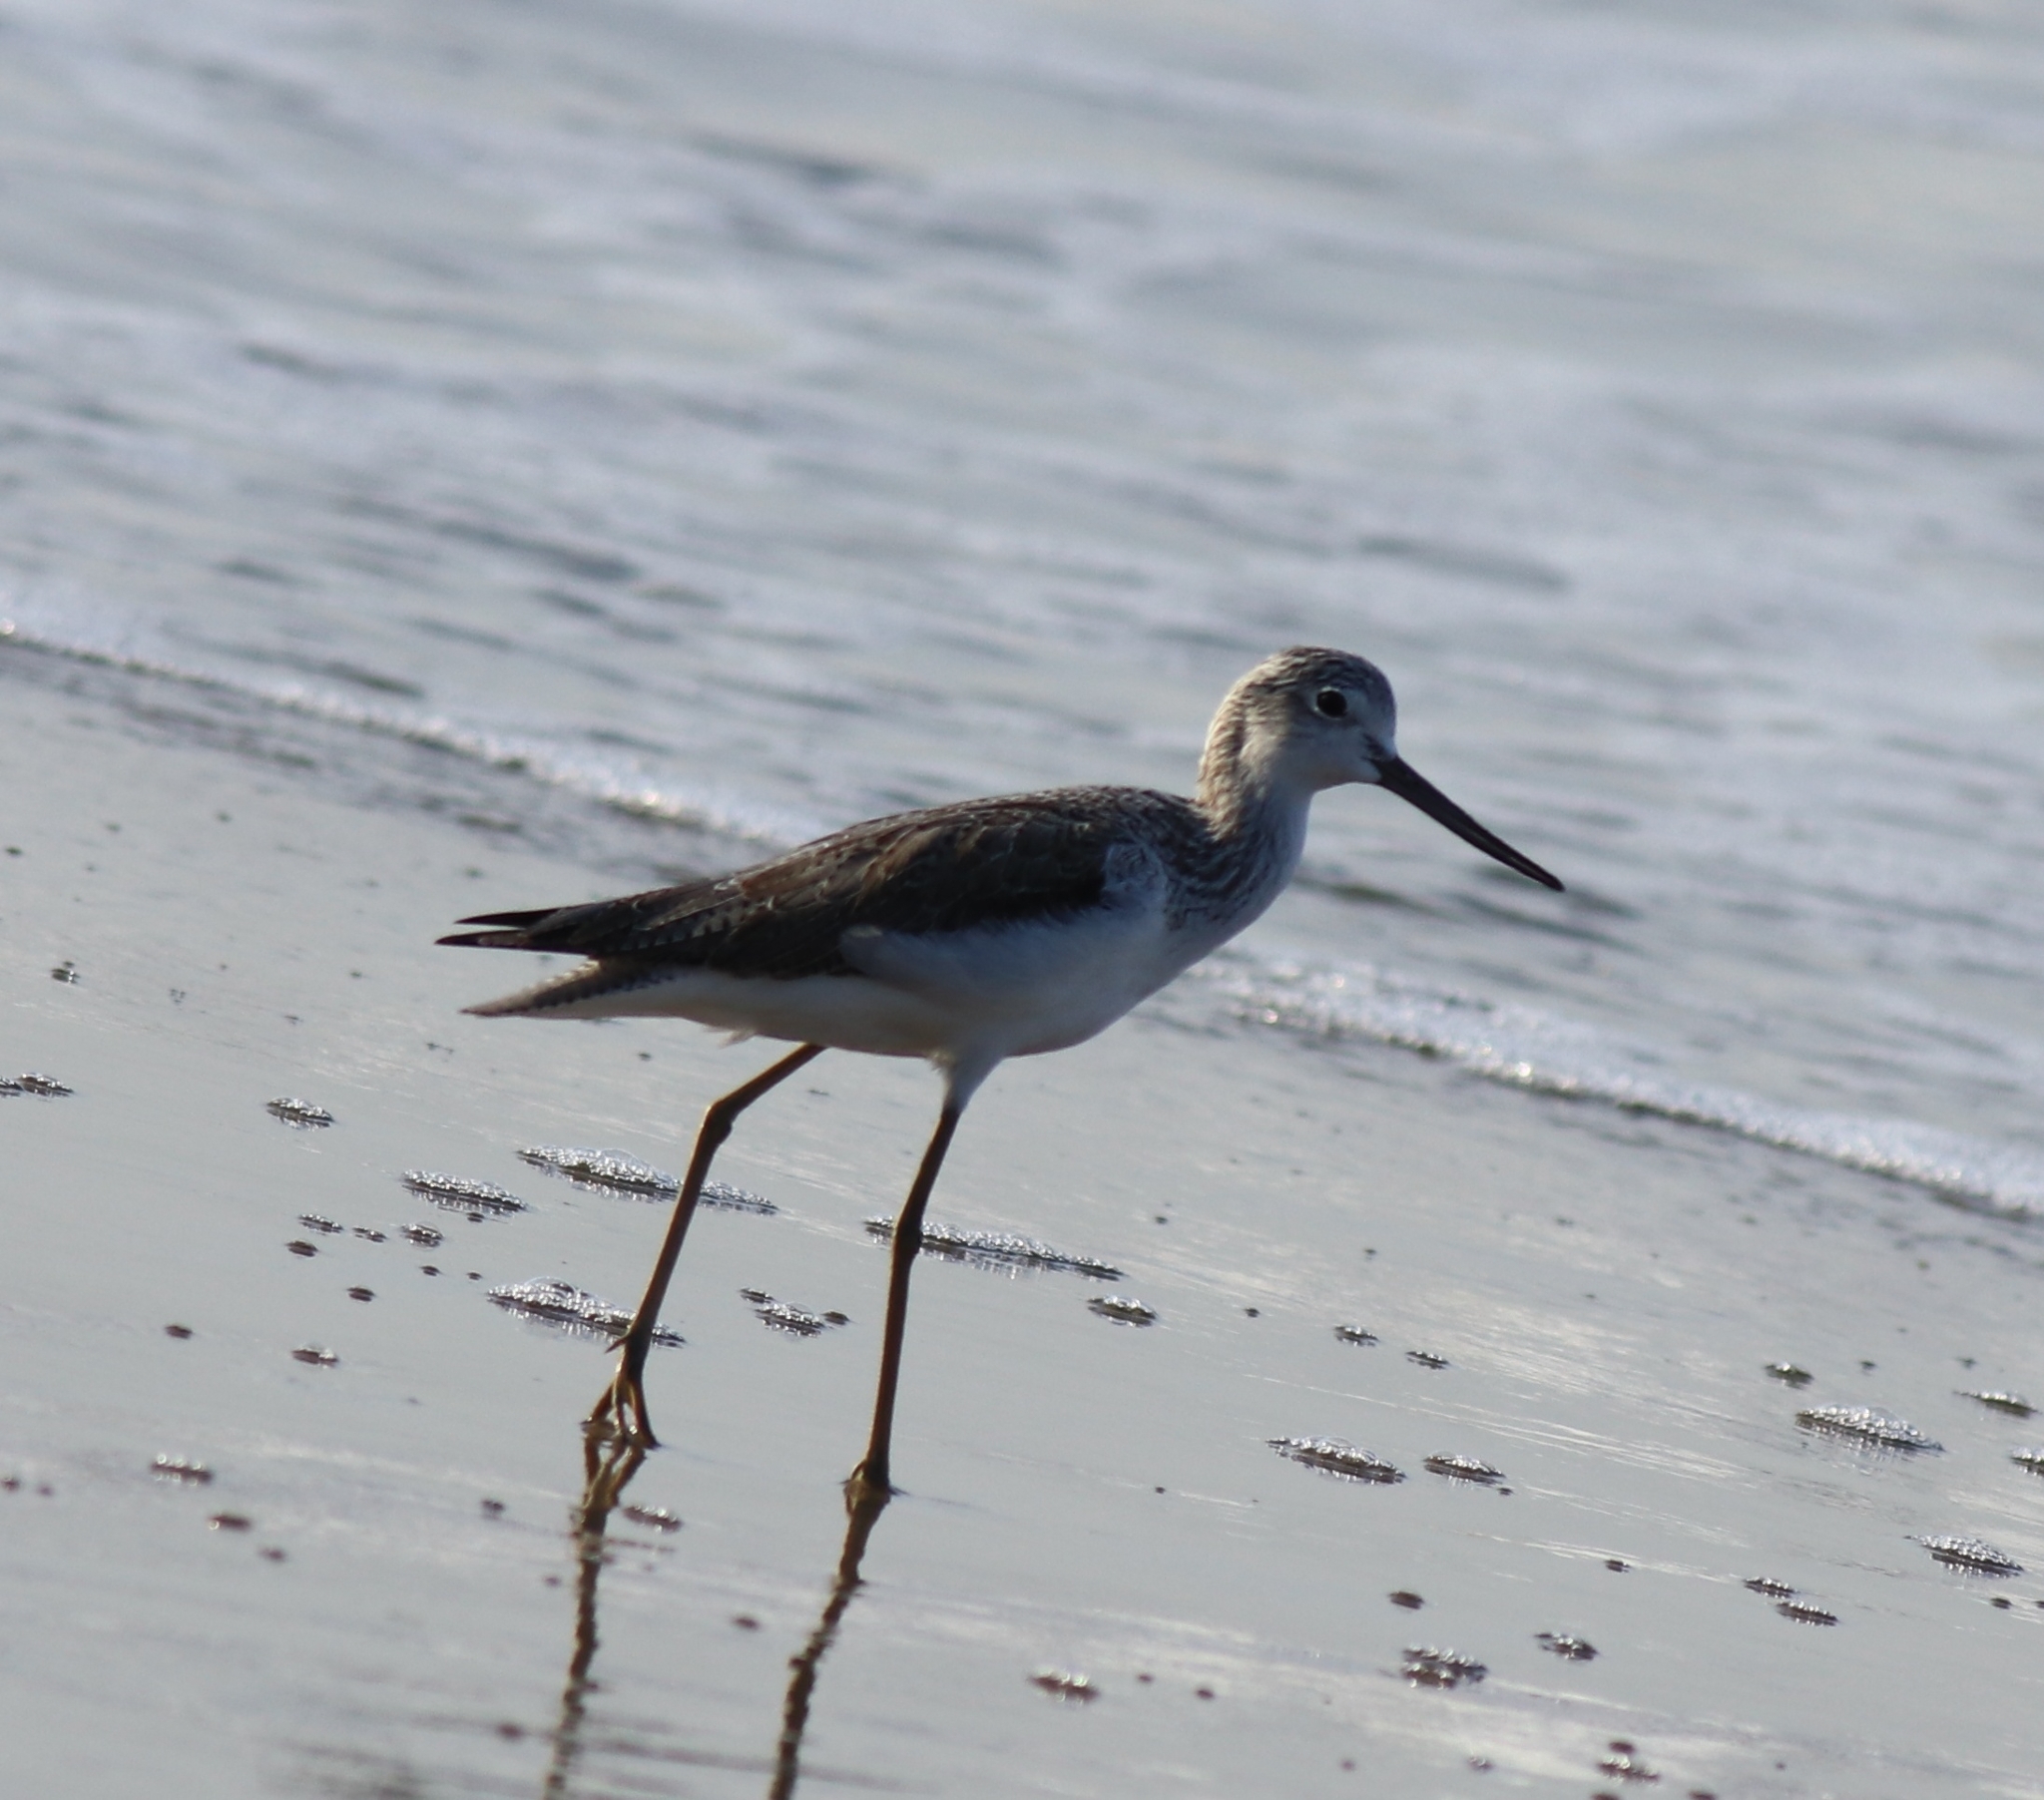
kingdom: Animalia
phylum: Chordata
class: Aves
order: Charadriiformes
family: Scolopacidae
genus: Tringa
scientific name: Tringa nebularia
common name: Common greenshank
